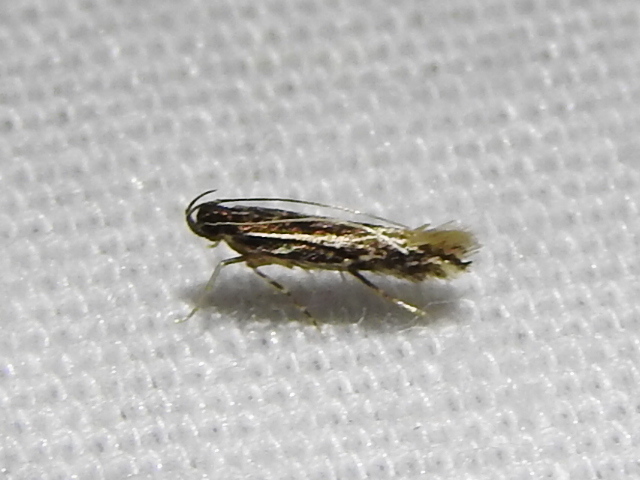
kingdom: Animalia
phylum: Arthropoda
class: Insecta
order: Lepidoptera
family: Cosmopterigidae
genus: Eralea
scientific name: Eralea albalineella
